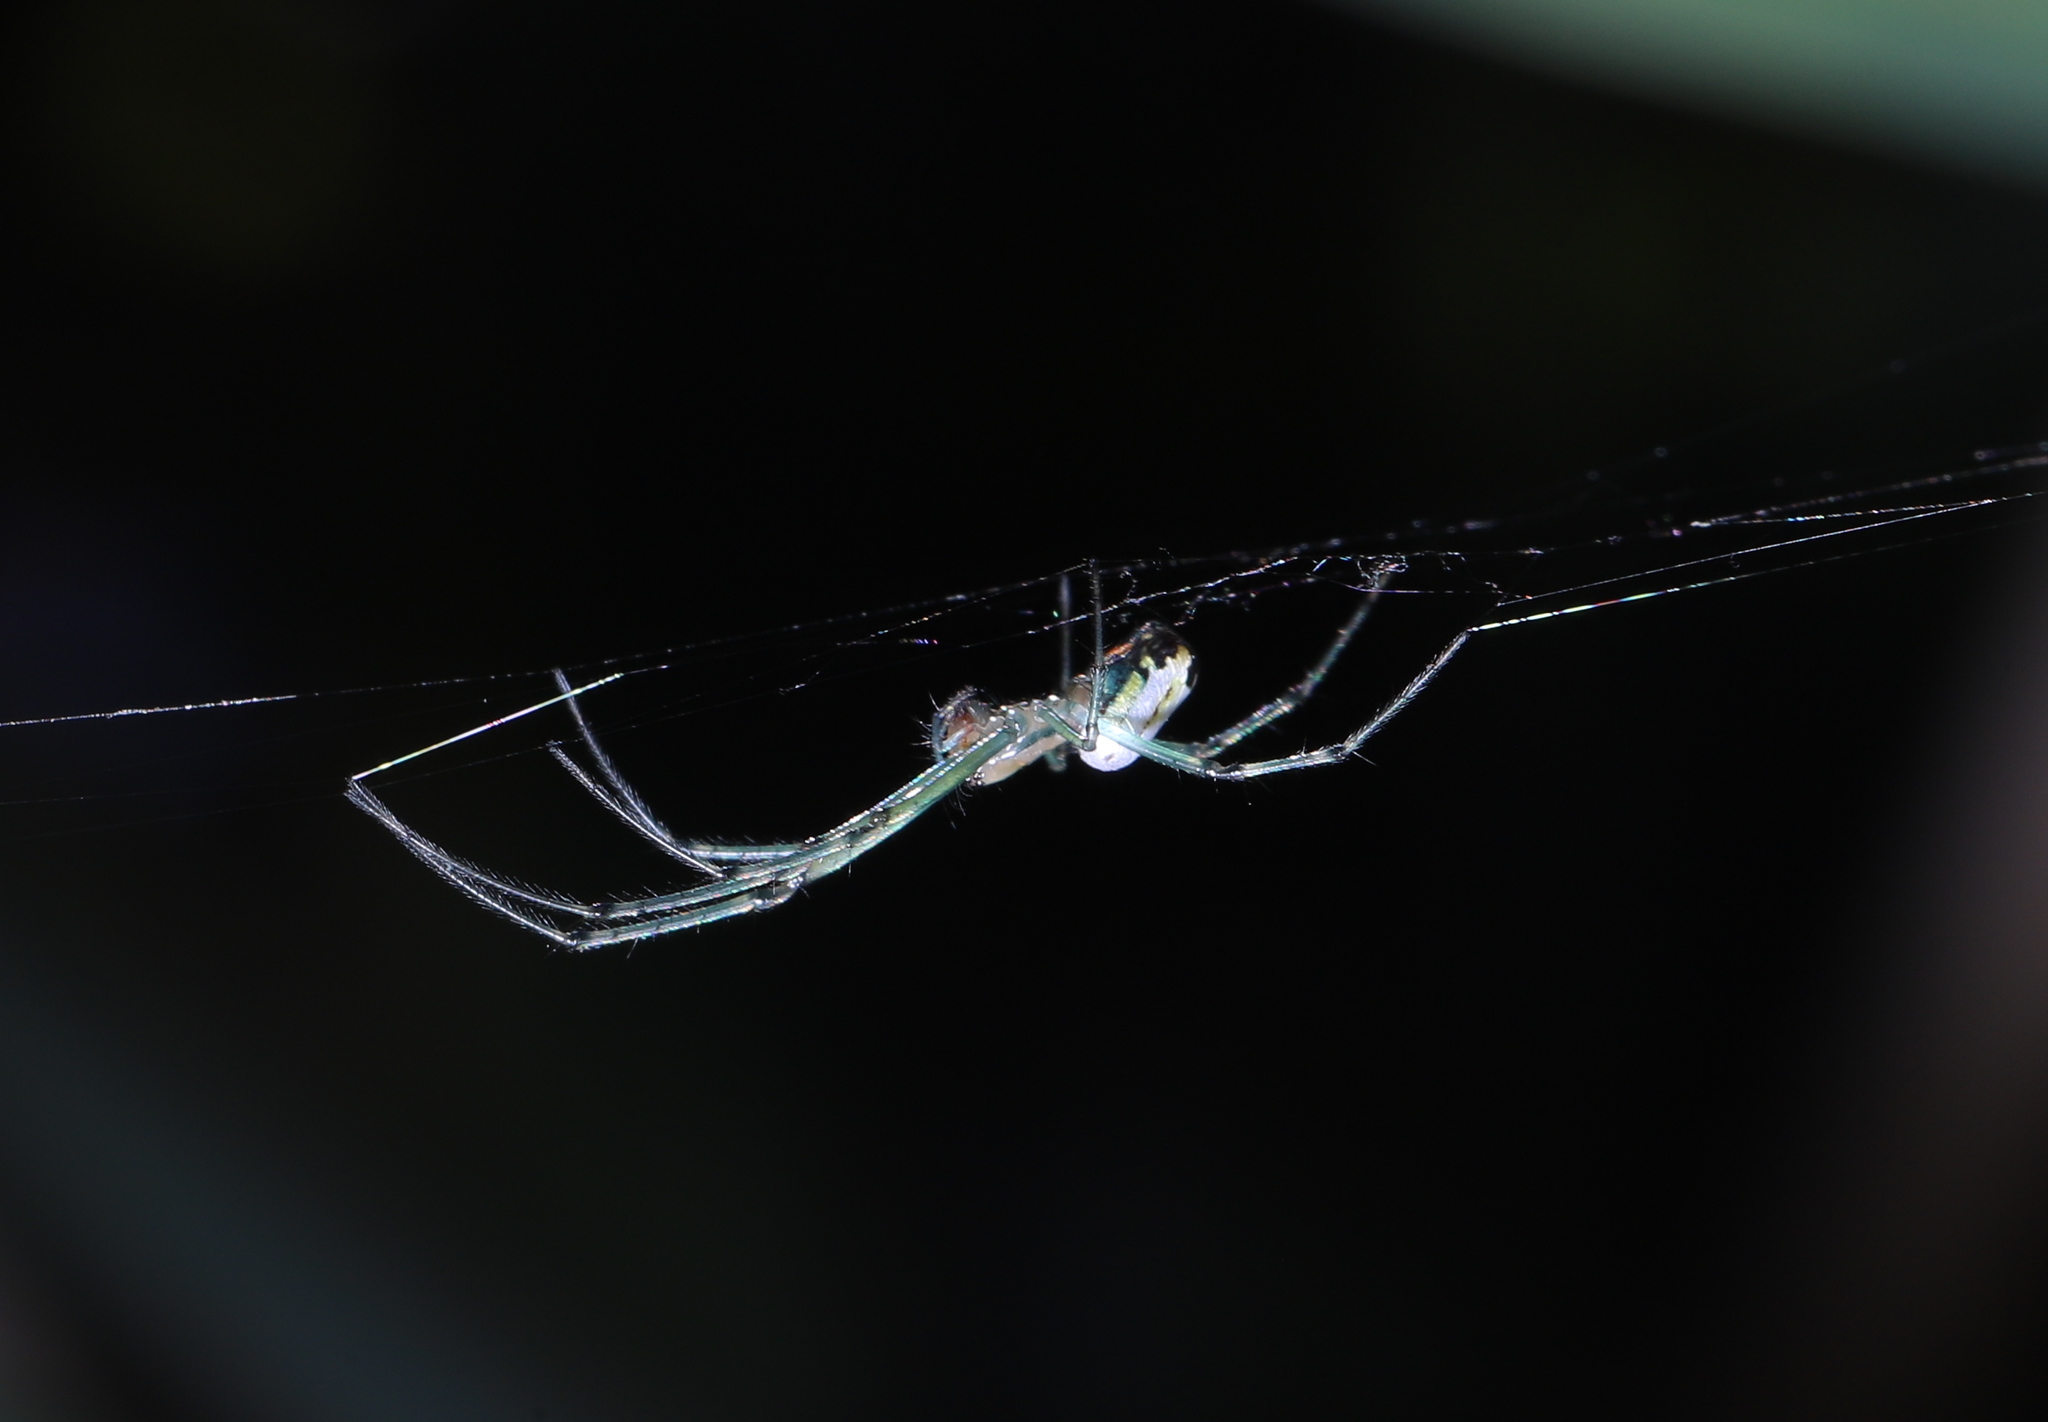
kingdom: Animalia
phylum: Arthropoda
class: Arachnida
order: Araneae
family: Tetragnathidae
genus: Leucauge
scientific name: Leucauge venusta
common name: Longjawed orb weavers
